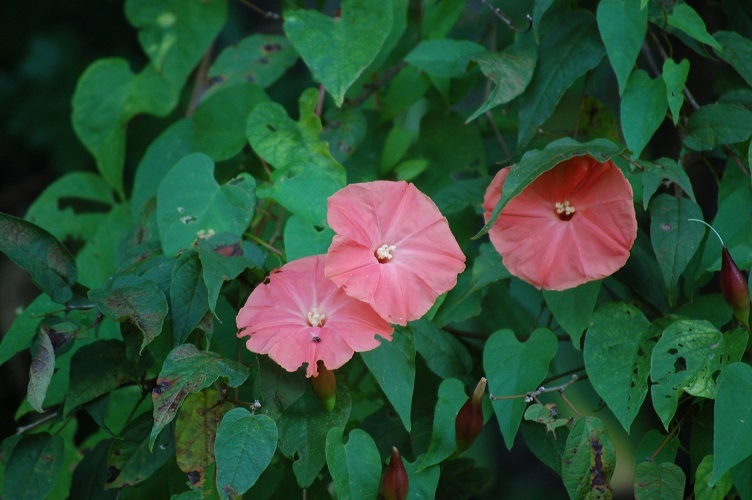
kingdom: Plantae
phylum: Tracheophyta
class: Magnoliopsida
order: Solanales
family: Convolvulaceae
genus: Operculina
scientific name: Operculina pteripes
